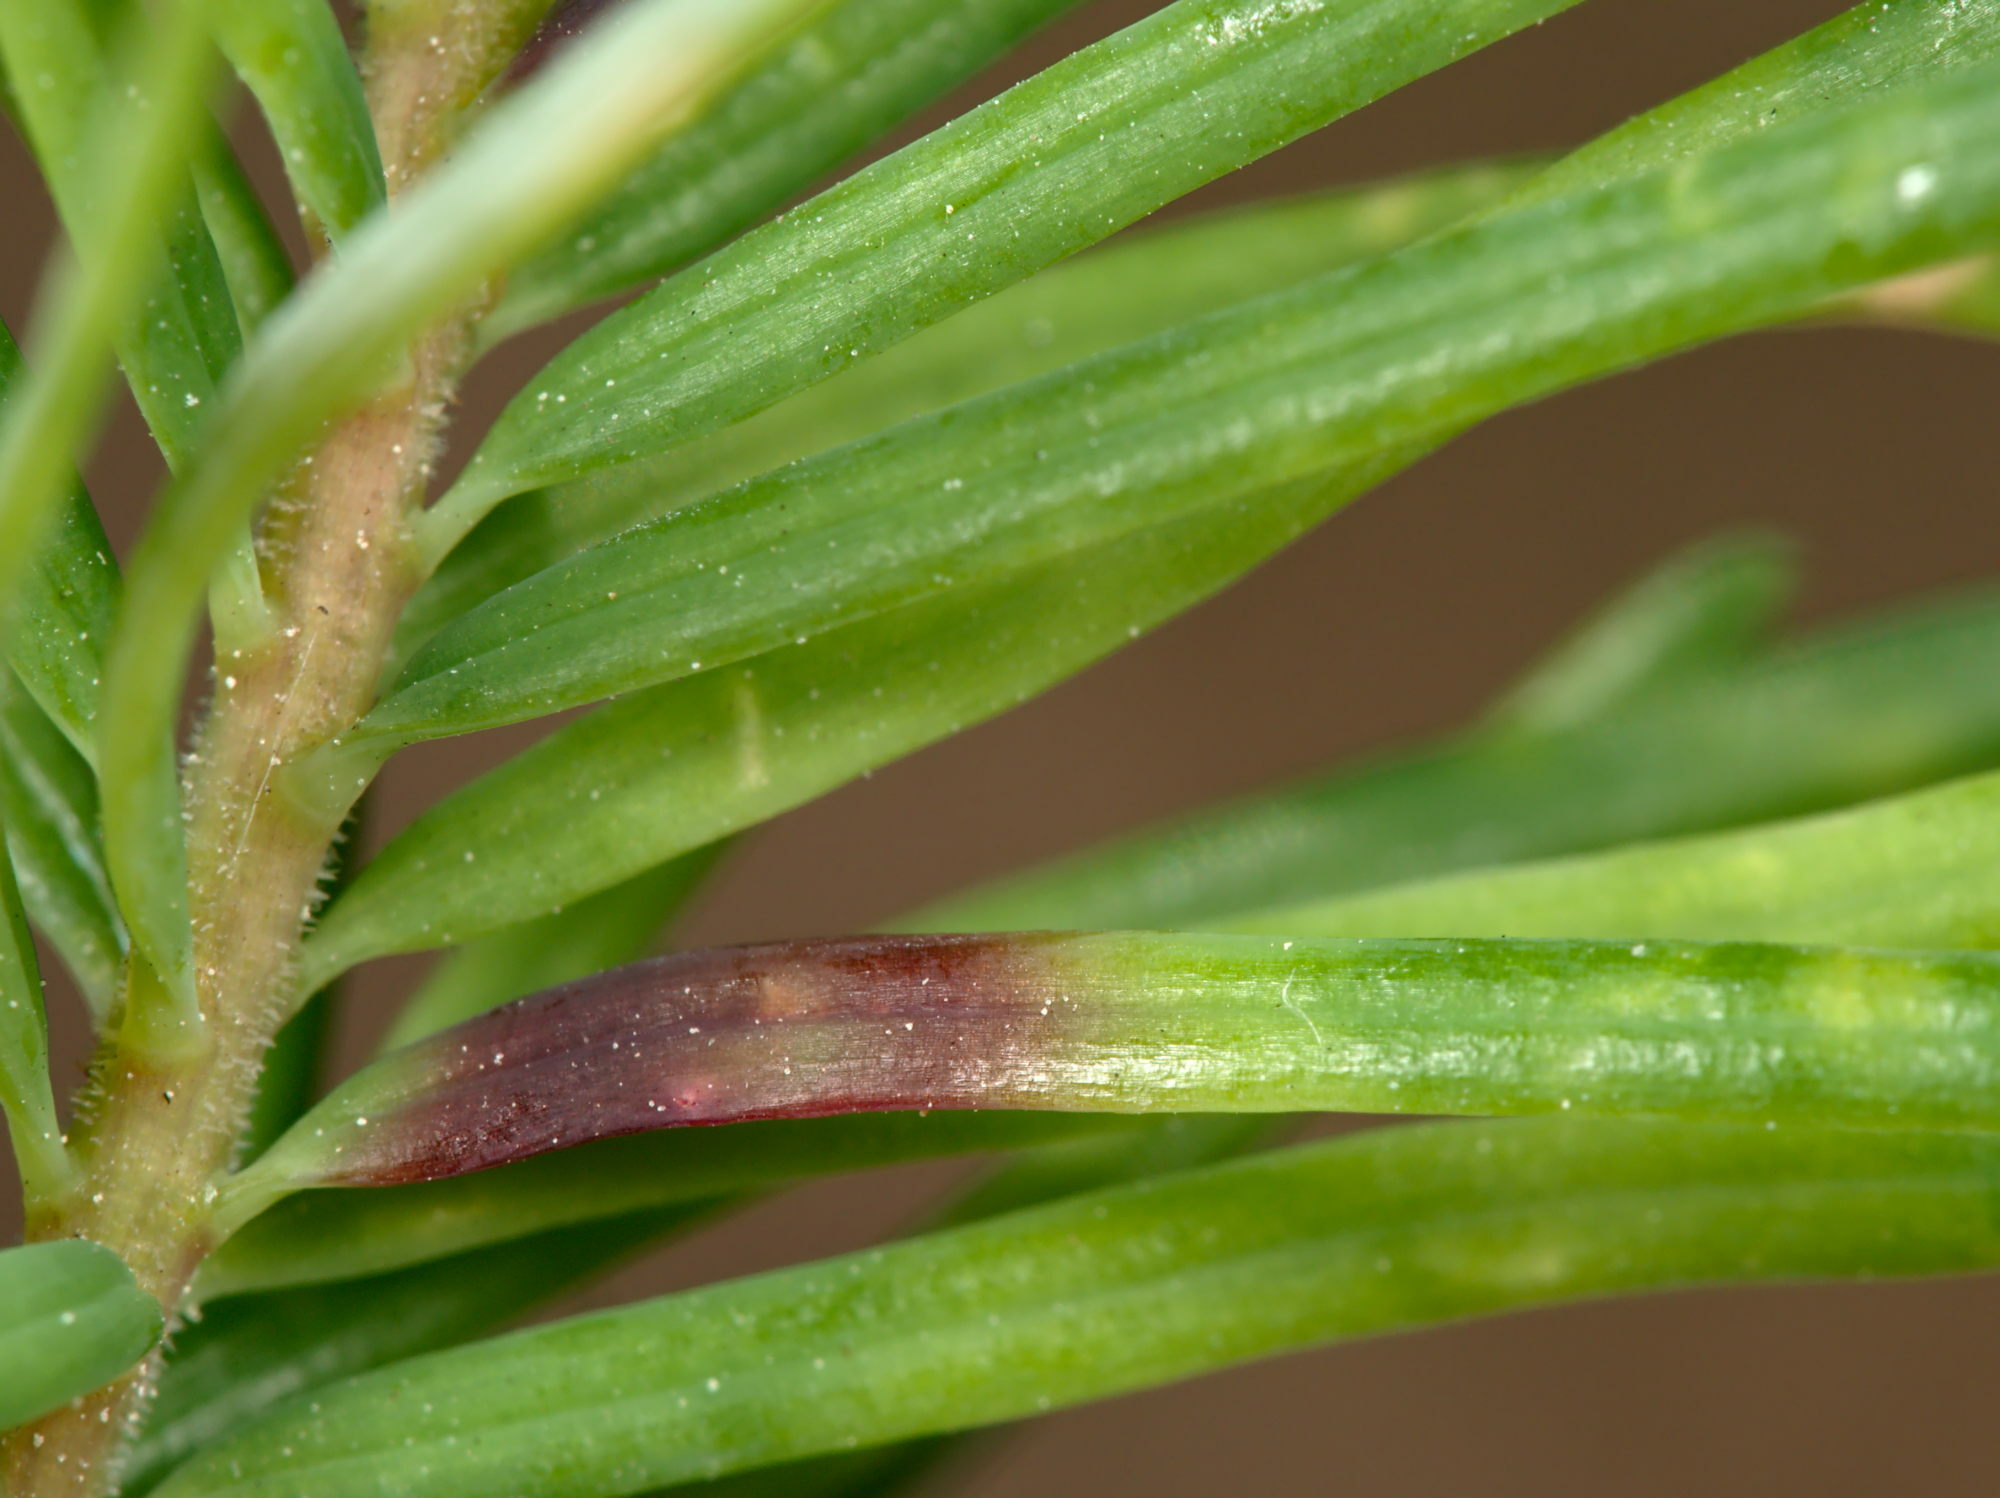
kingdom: Animalia
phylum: Arthropoda
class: Insecta
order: Diptera
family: Cecidomyiidae
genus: Contarinia
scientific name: Contarinia pseudotsugae
